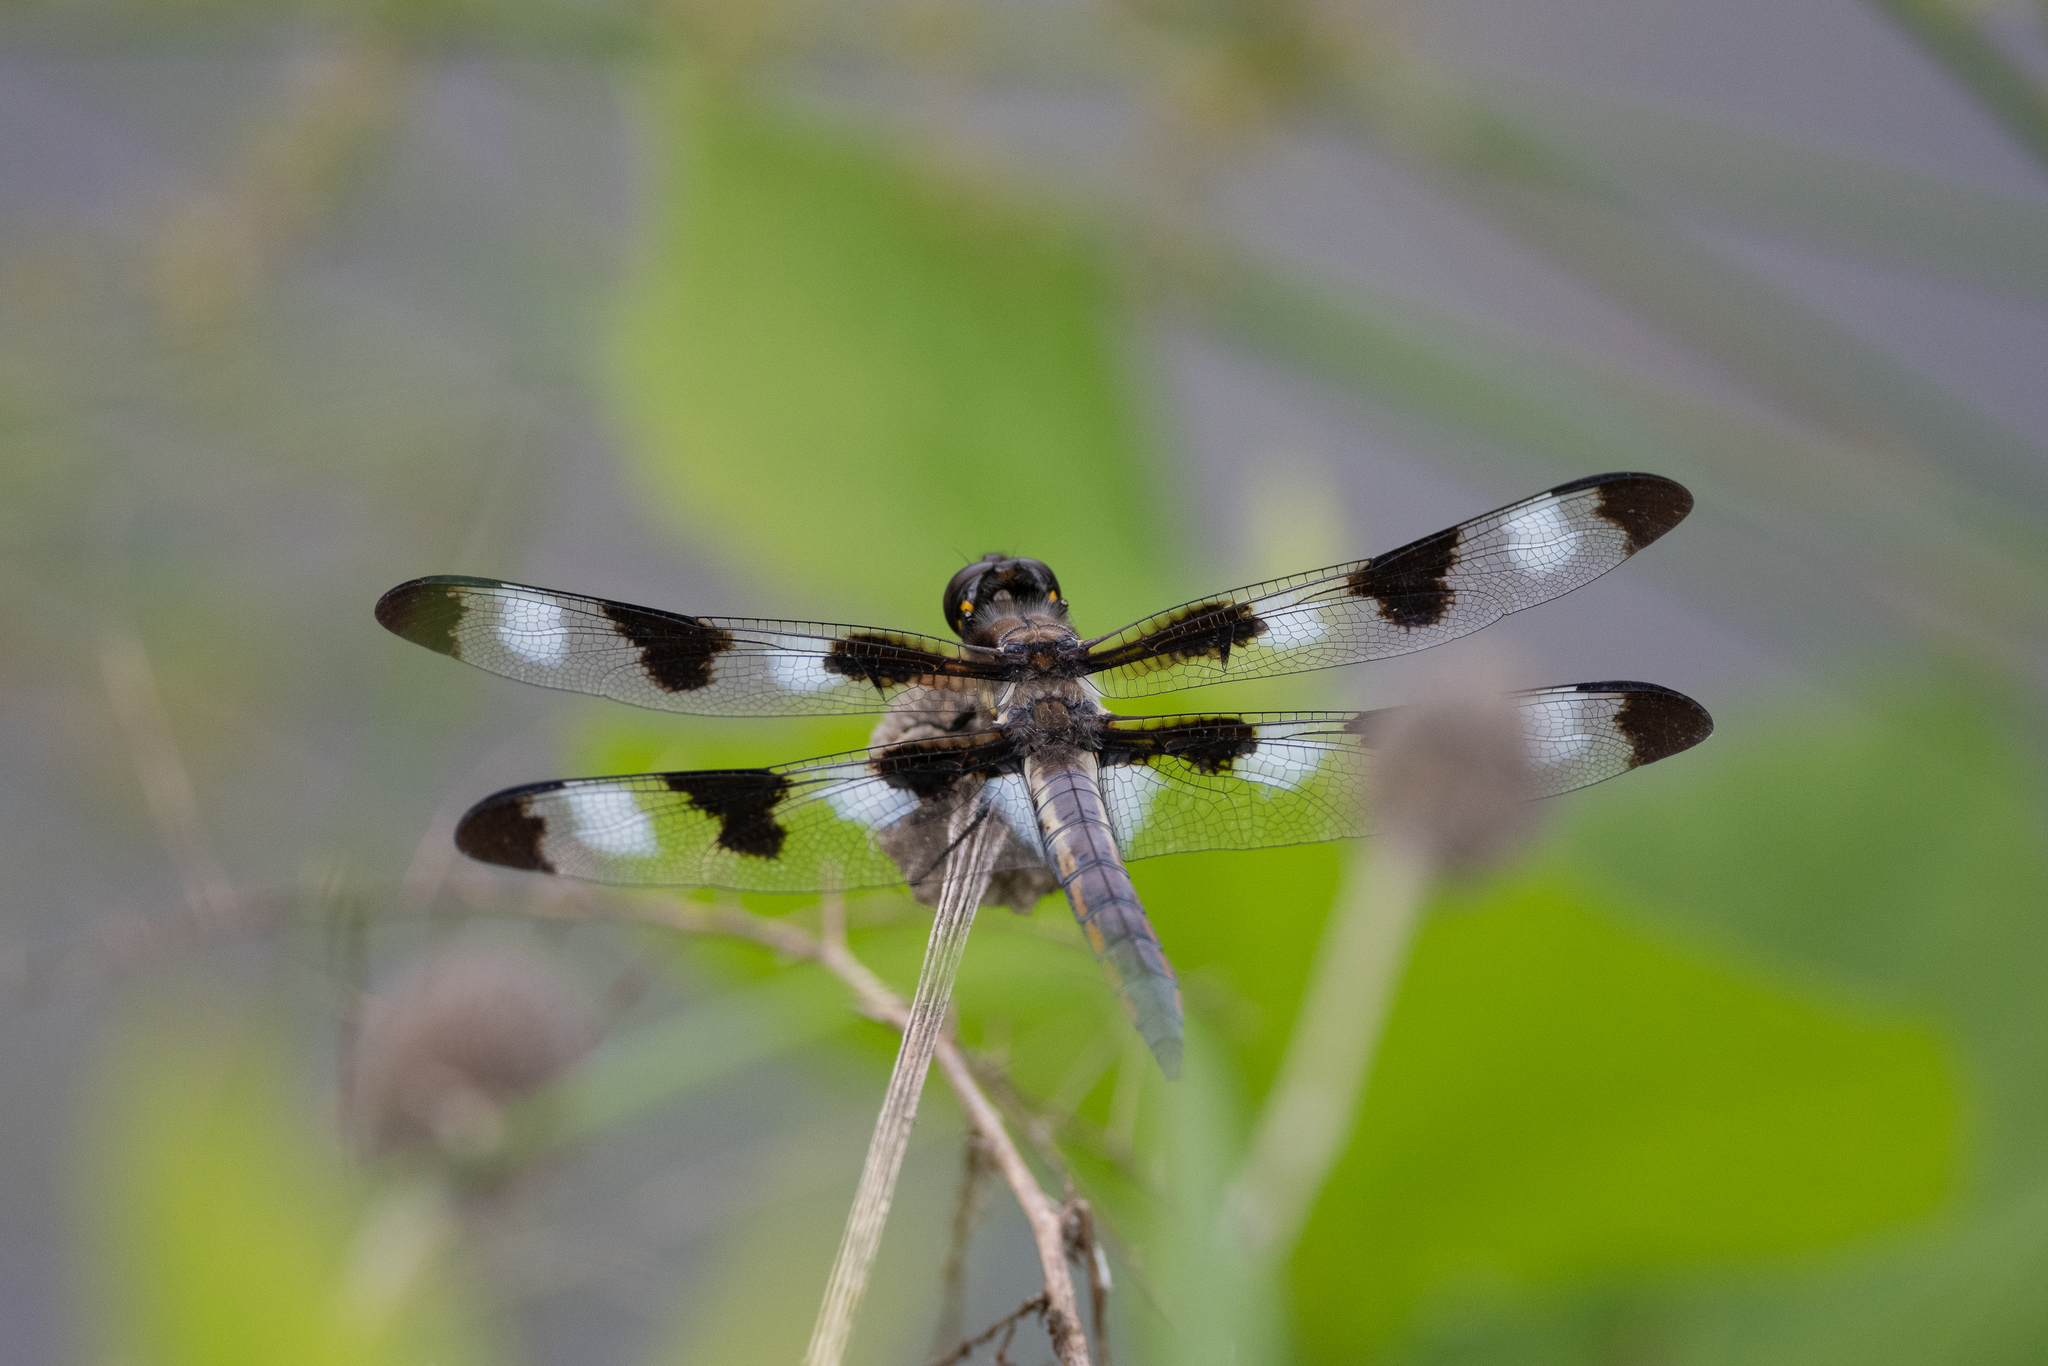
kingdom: Animalia
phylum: Arthropoda
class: Insecta
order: Odonata
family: Libellulidae
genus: Libellula
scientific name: Libellula pulchella
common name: Twelve-spotted skimmer
